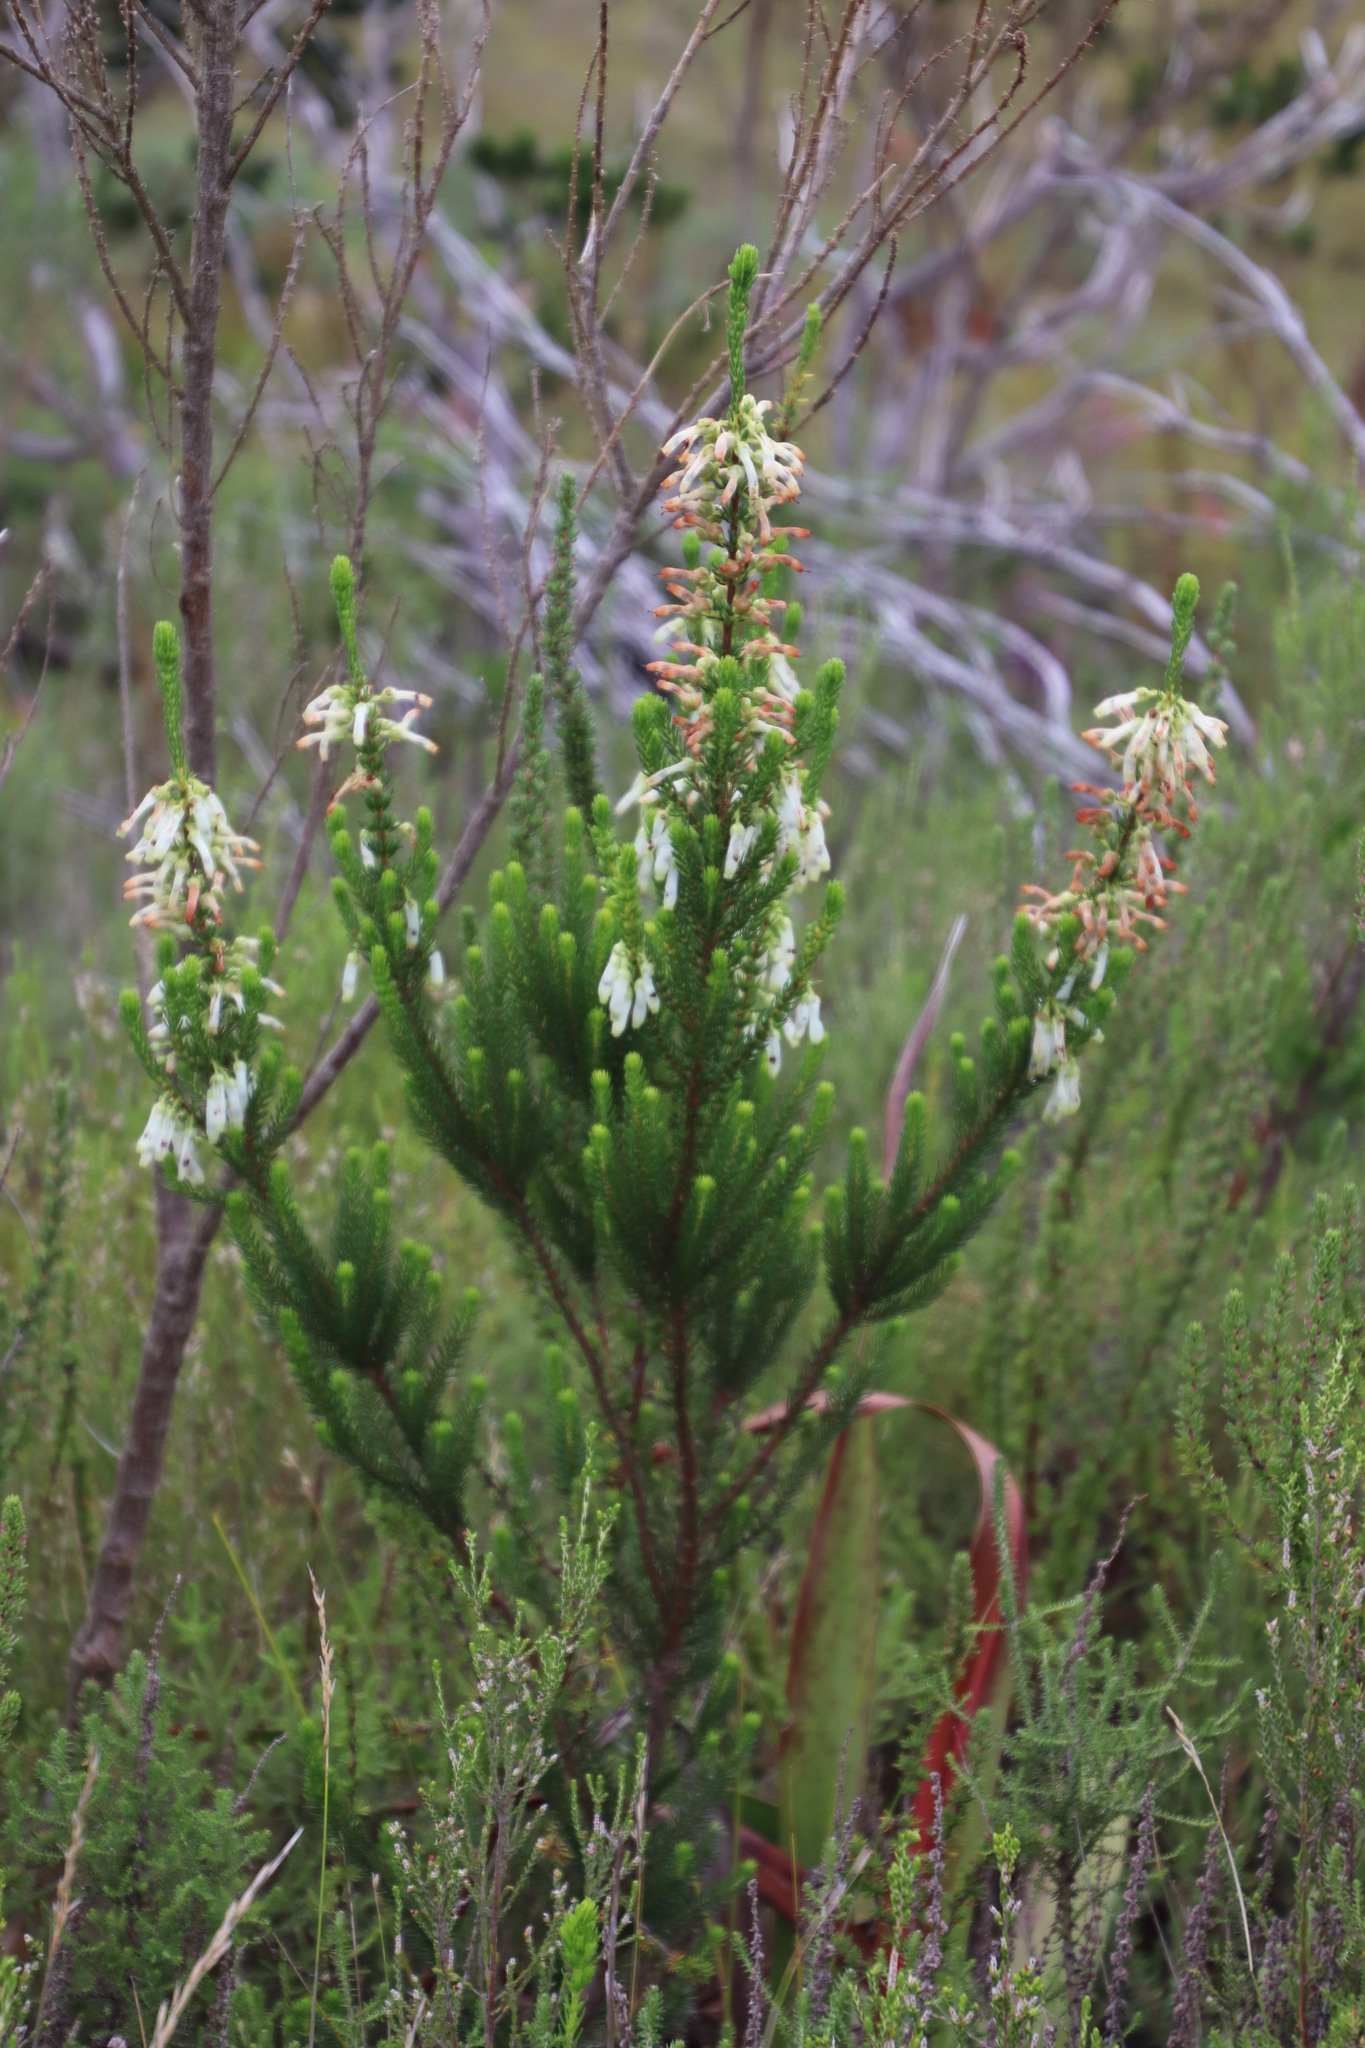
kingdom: Plantae
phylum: Tracheophyta
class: Magnoliopsida
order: Ericales
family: Ericaceae
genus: Erica
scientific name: Erica mammosa
